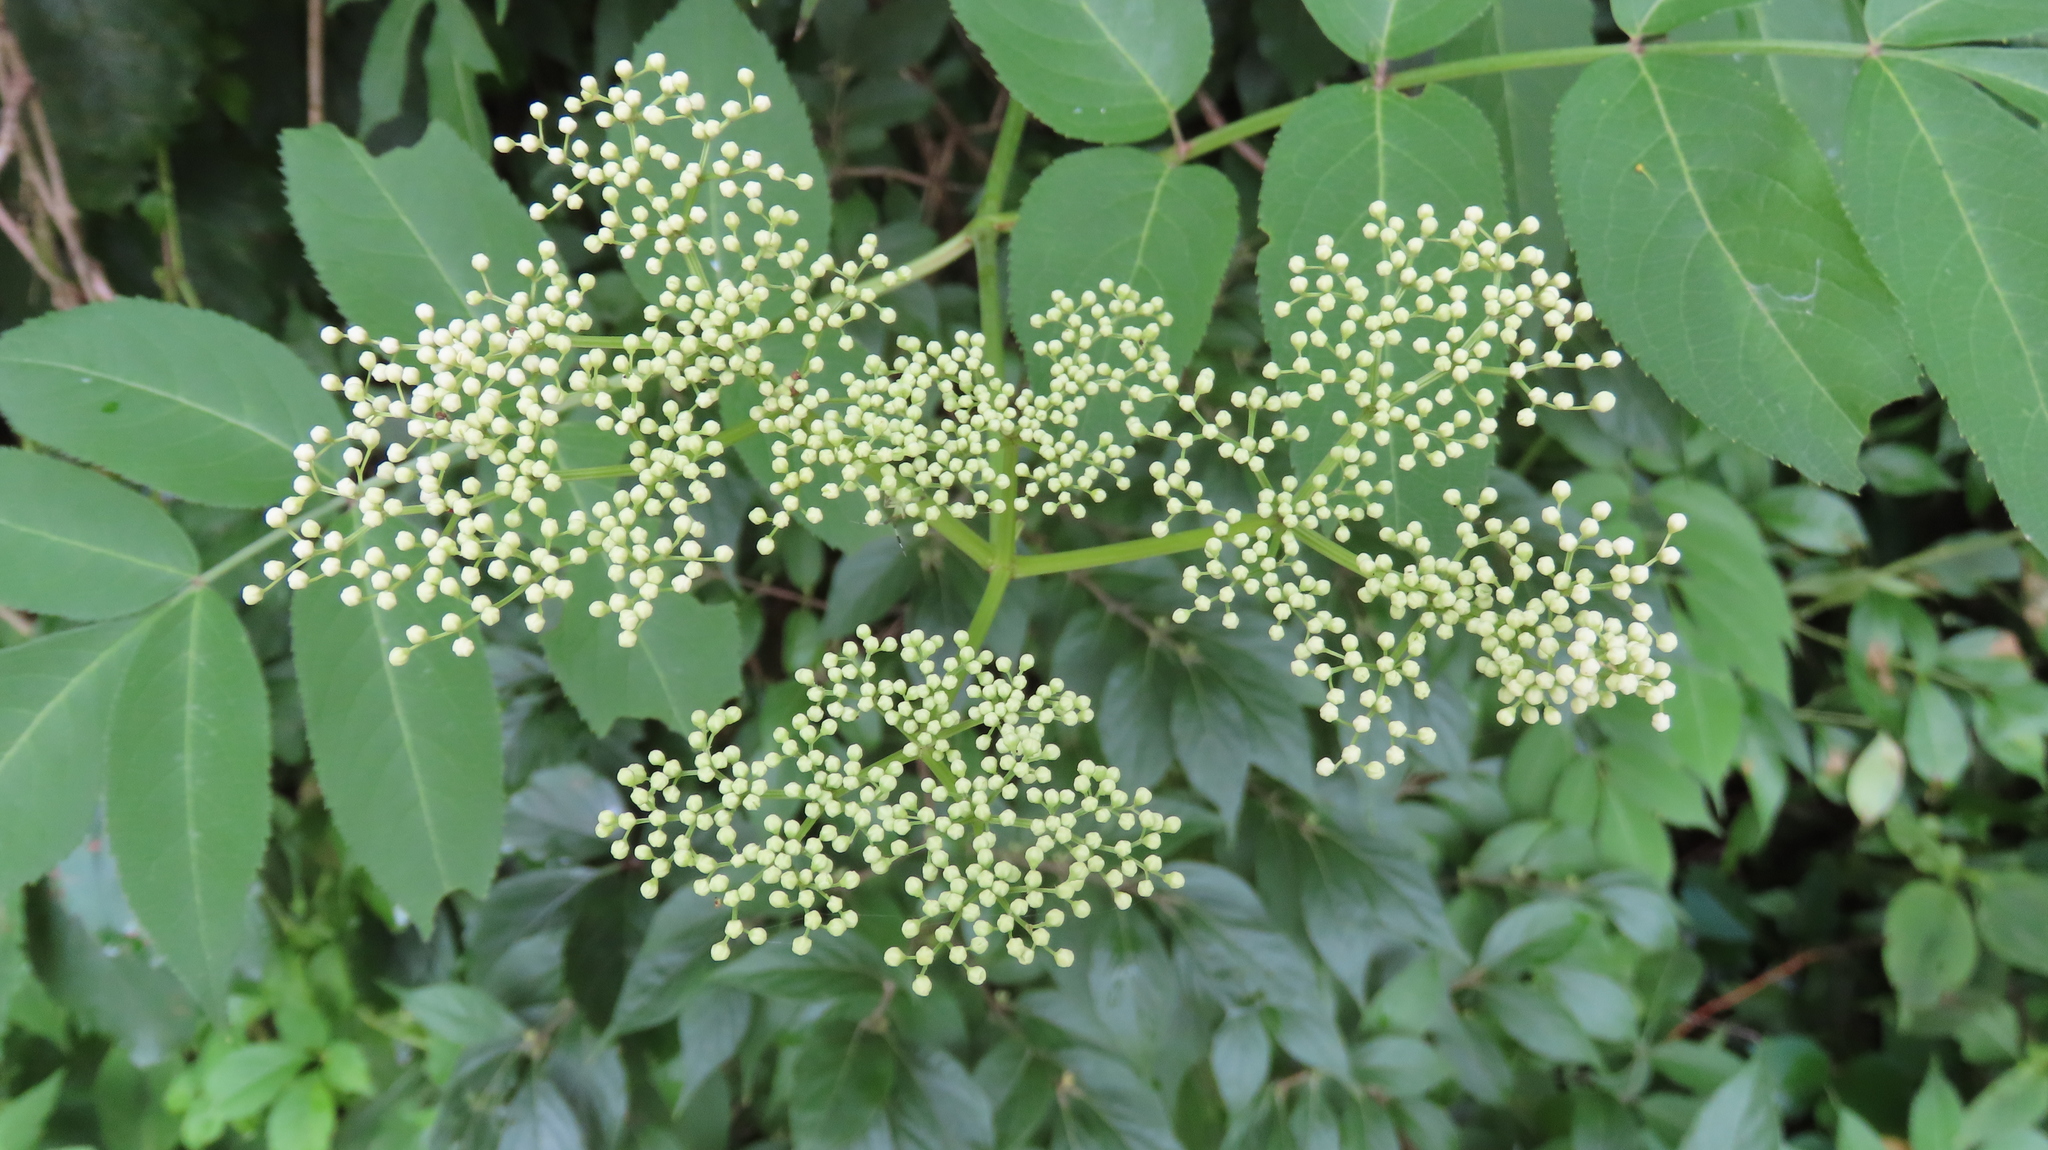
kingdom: Plantae
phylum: Tracheophyta
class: Magnoliopsida
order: Dipsacales
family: Viburnaceae
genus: Sambucus
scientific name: Sambucus canadensis
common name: American elder
